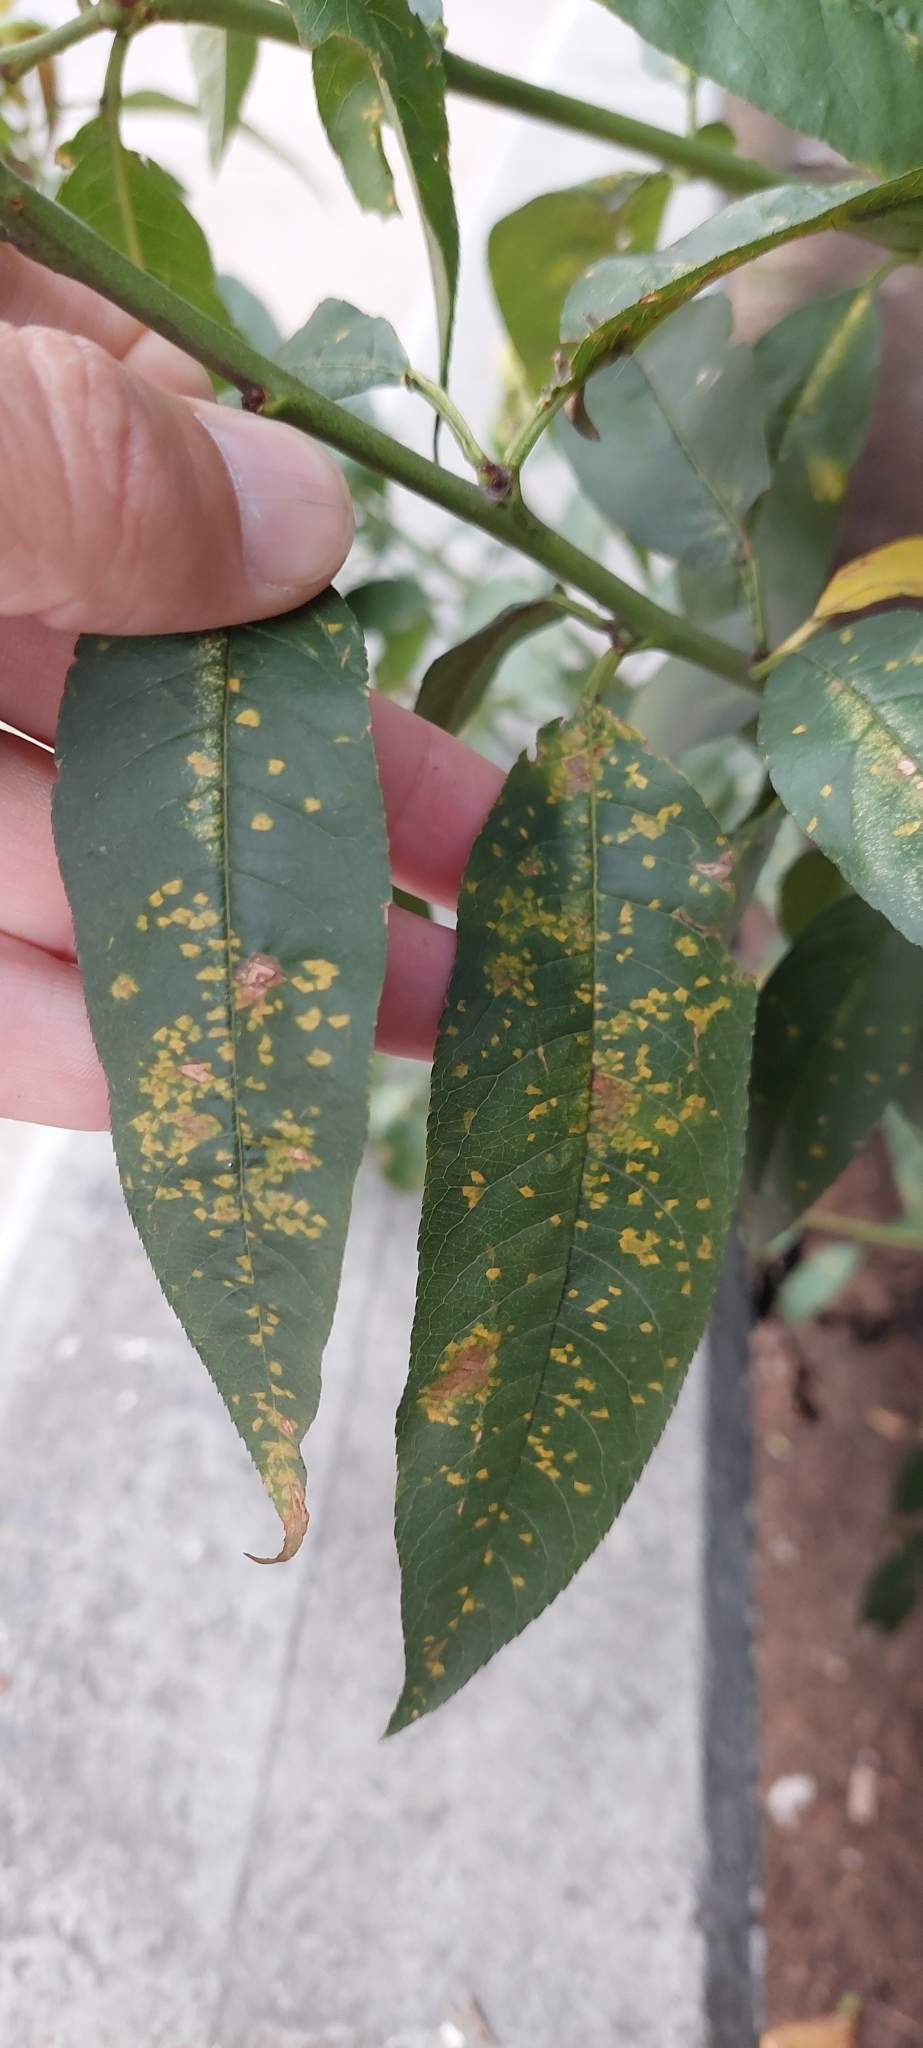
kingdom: Plantae
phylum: Tracheophyta
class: Magnoliopsida
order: Rosales
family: Rosaceae
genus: Prunus
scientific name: Prunus serotina
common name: Black cherry
